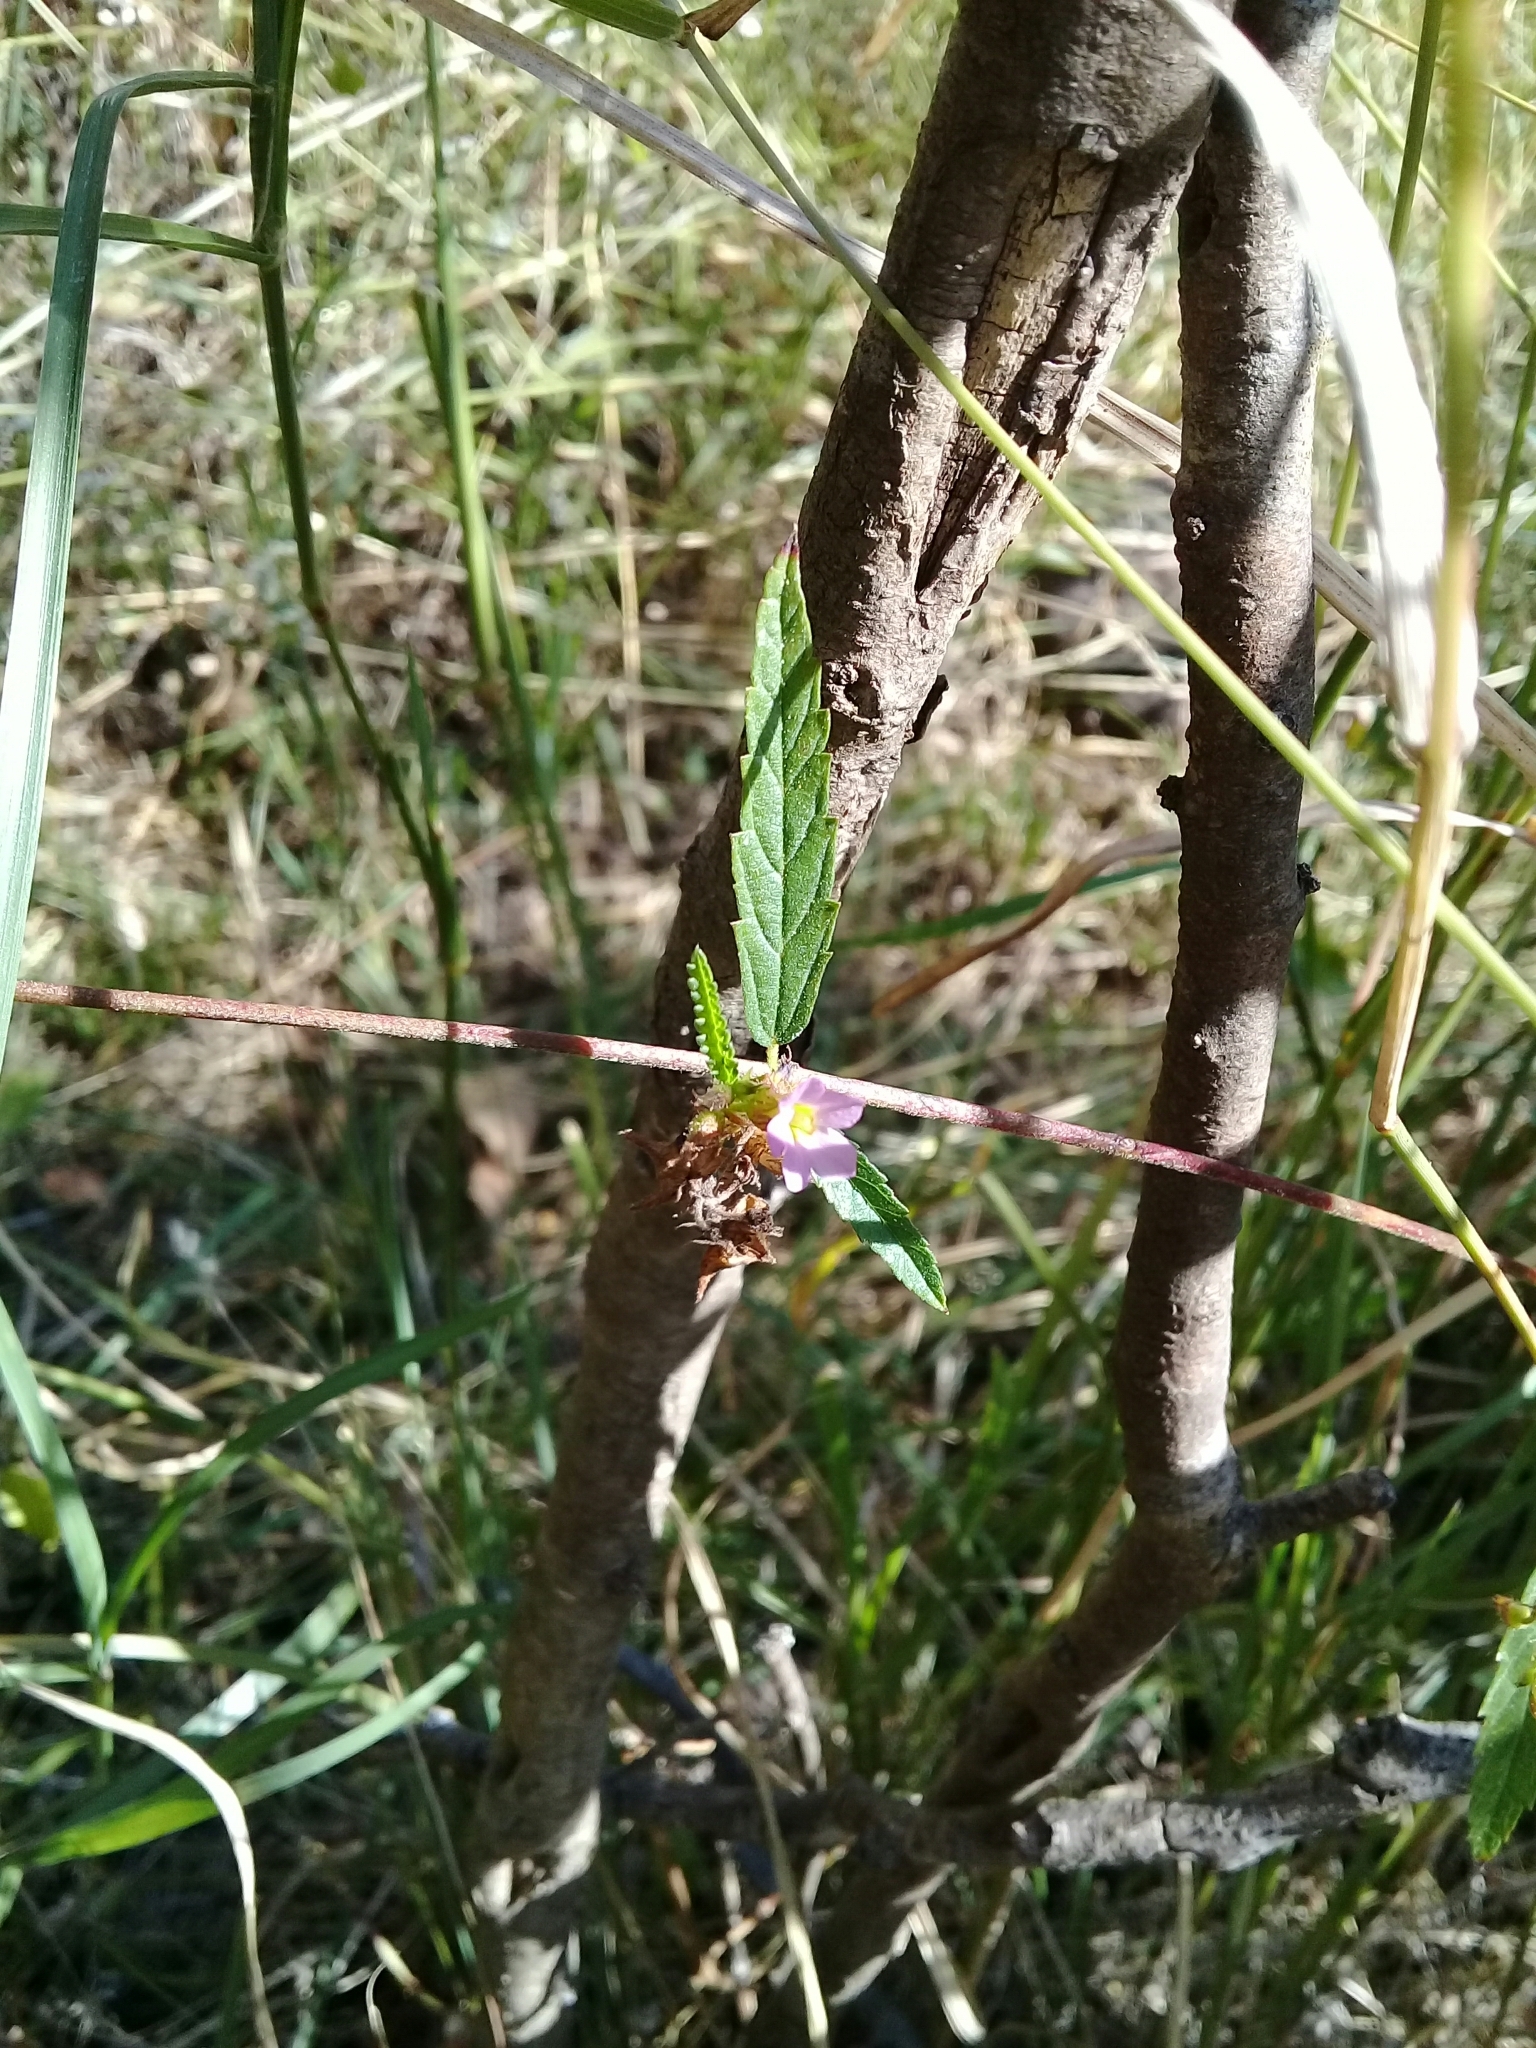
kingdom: Plantae
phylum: Tracheophyta
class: Magnoliopsida
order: Malvales
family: Malvaceae
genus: Melochia
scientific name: Melochia pyramidata
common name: Pyramidflower
